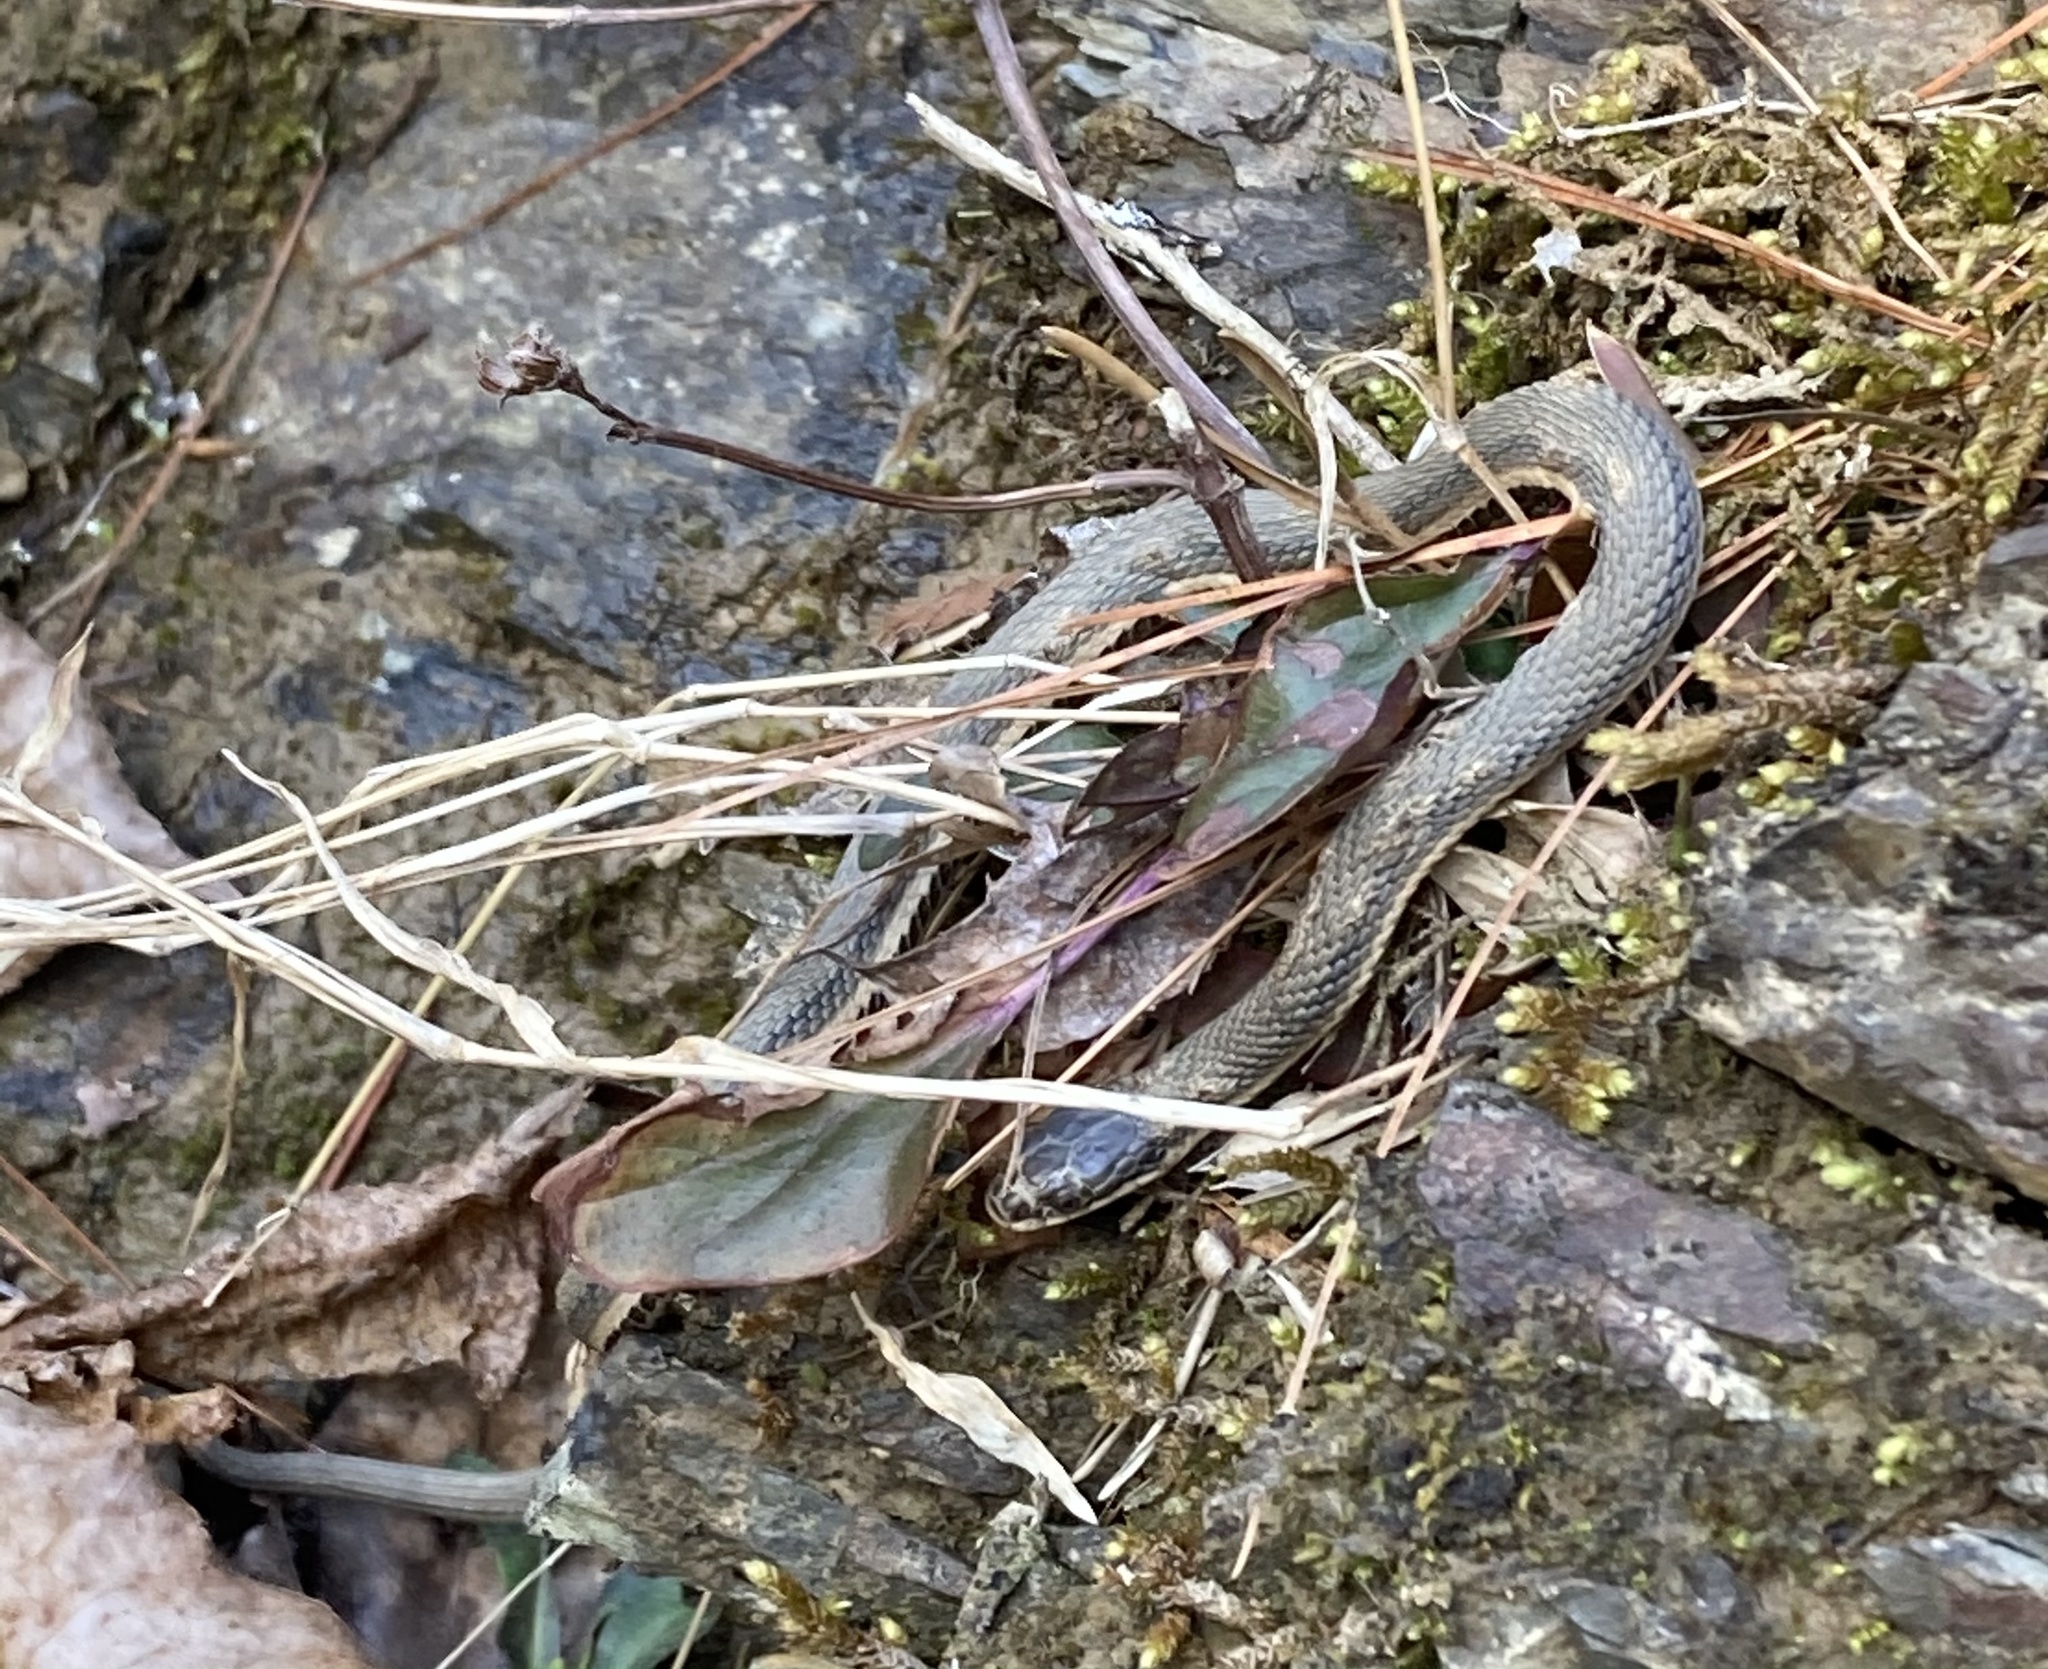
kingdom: Animalia
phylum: Chordata
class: Squamata
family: Colubridae
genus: Regina
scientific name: Regina septemvittata
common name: Queen snake
